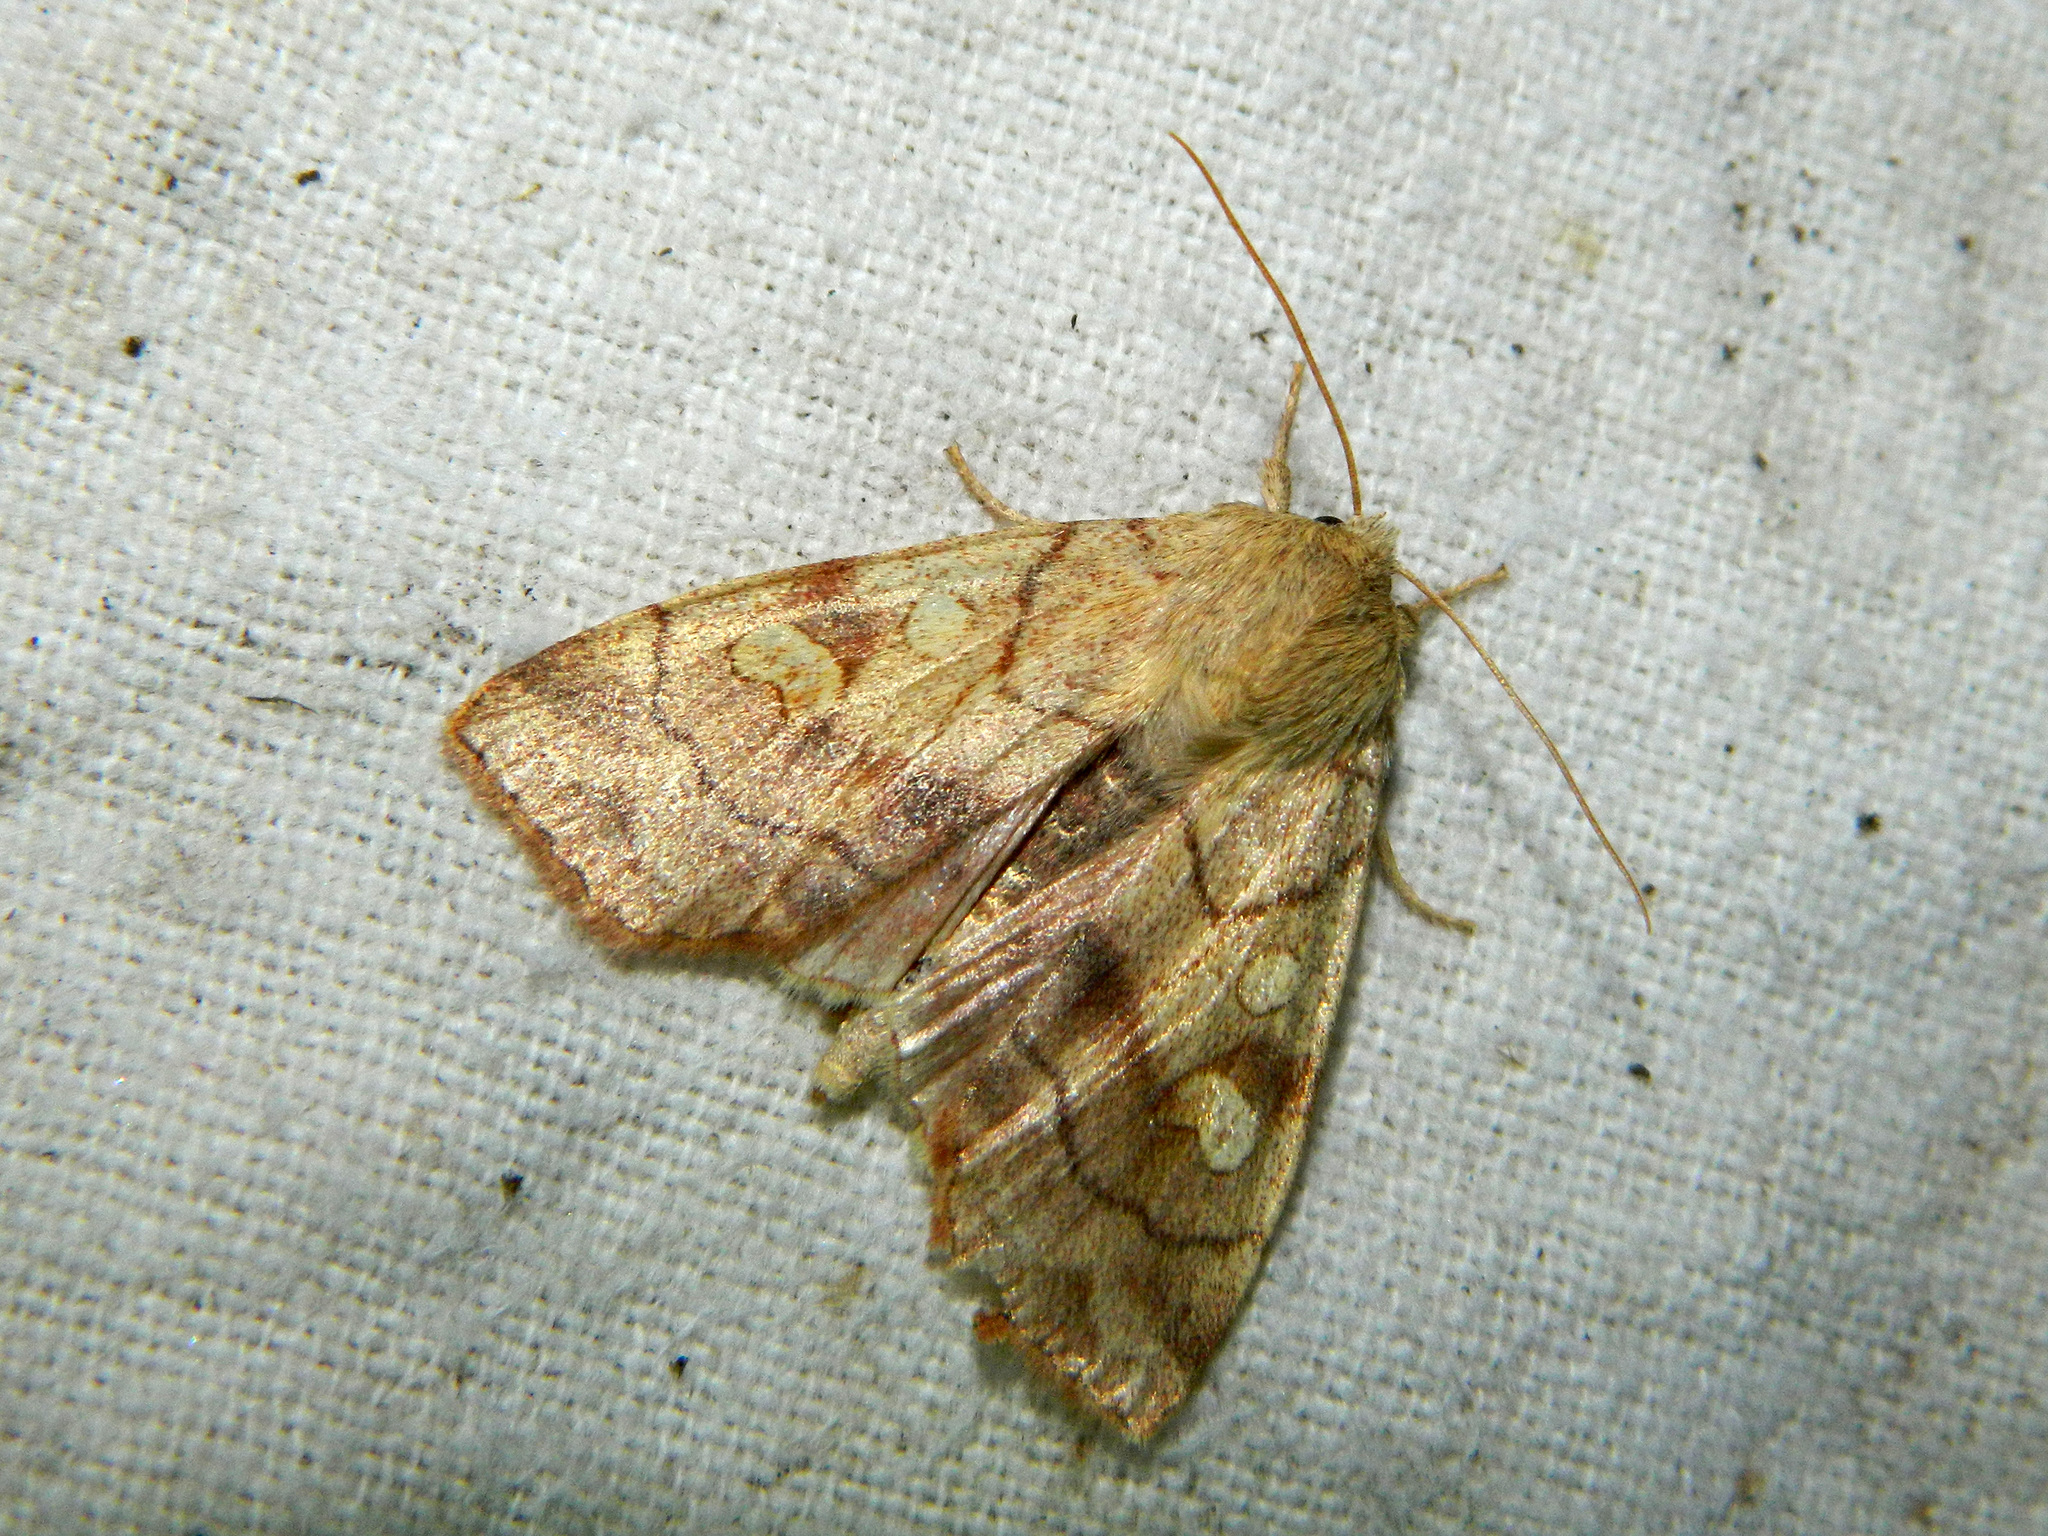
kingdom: Animalia
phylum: Arthropoda
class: Insecta
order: Lepidoptera
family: Noctuidae
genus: Enargia
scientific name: Enargia decolor
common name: Aspen twoleaf tier moth
